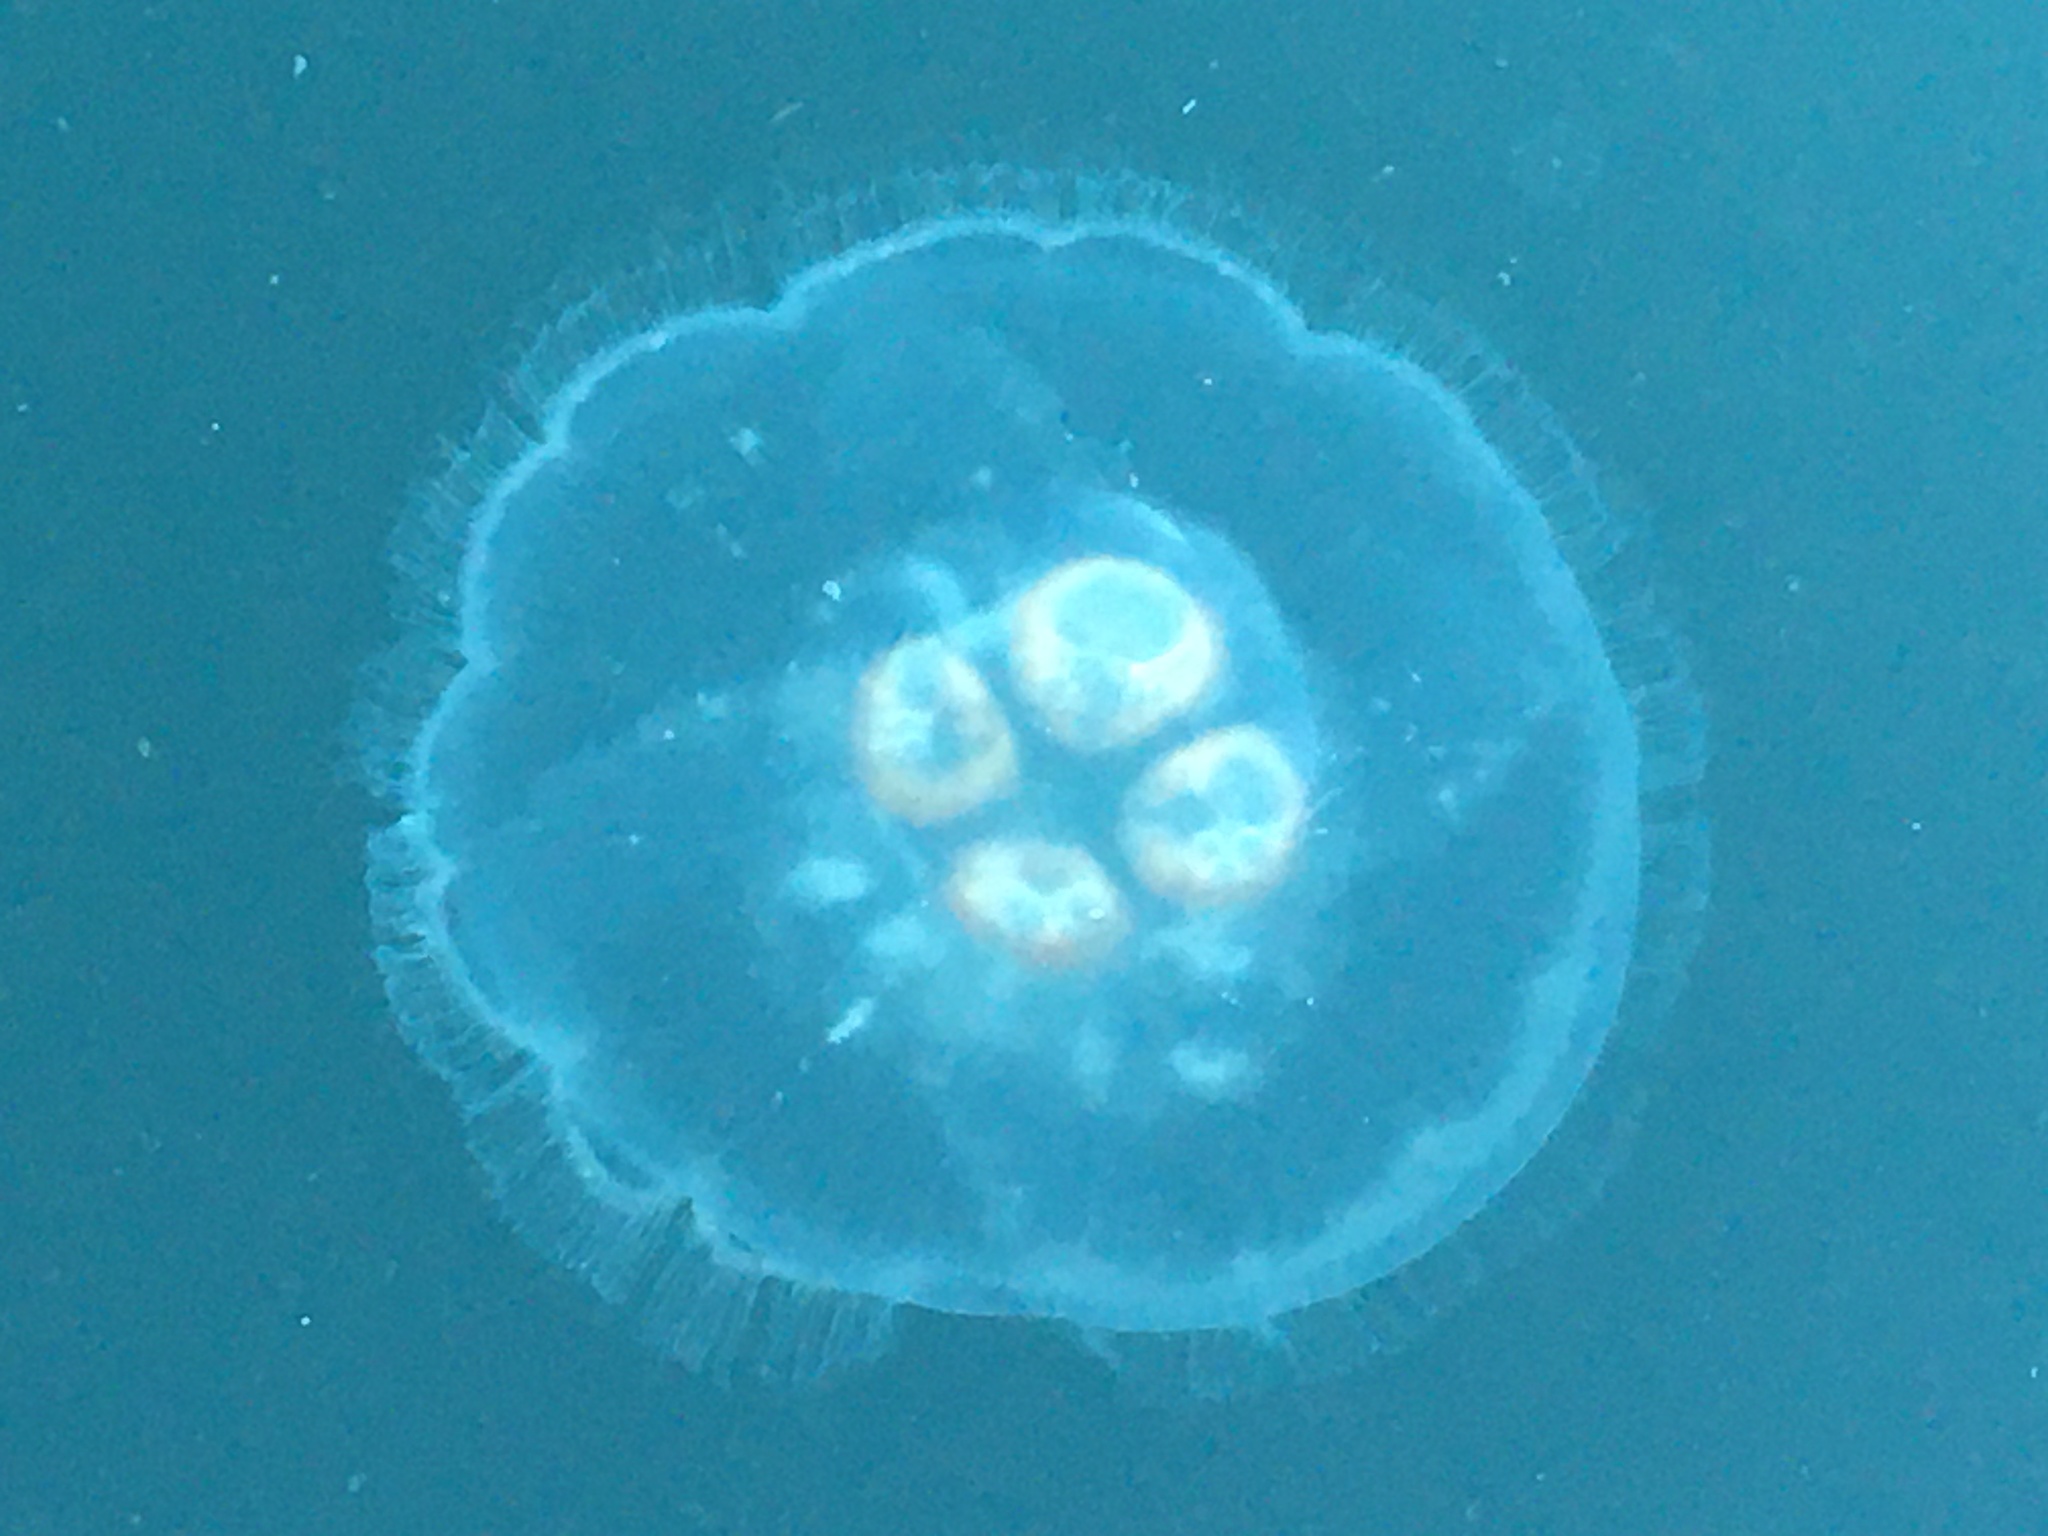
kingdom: Animalia
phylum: Cnidaria
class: Scyphozoa
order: Semaeostomeae
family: Ulmaridae
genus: Aurelia
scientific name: Aurelia labiata
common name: Pacific moon jelly
